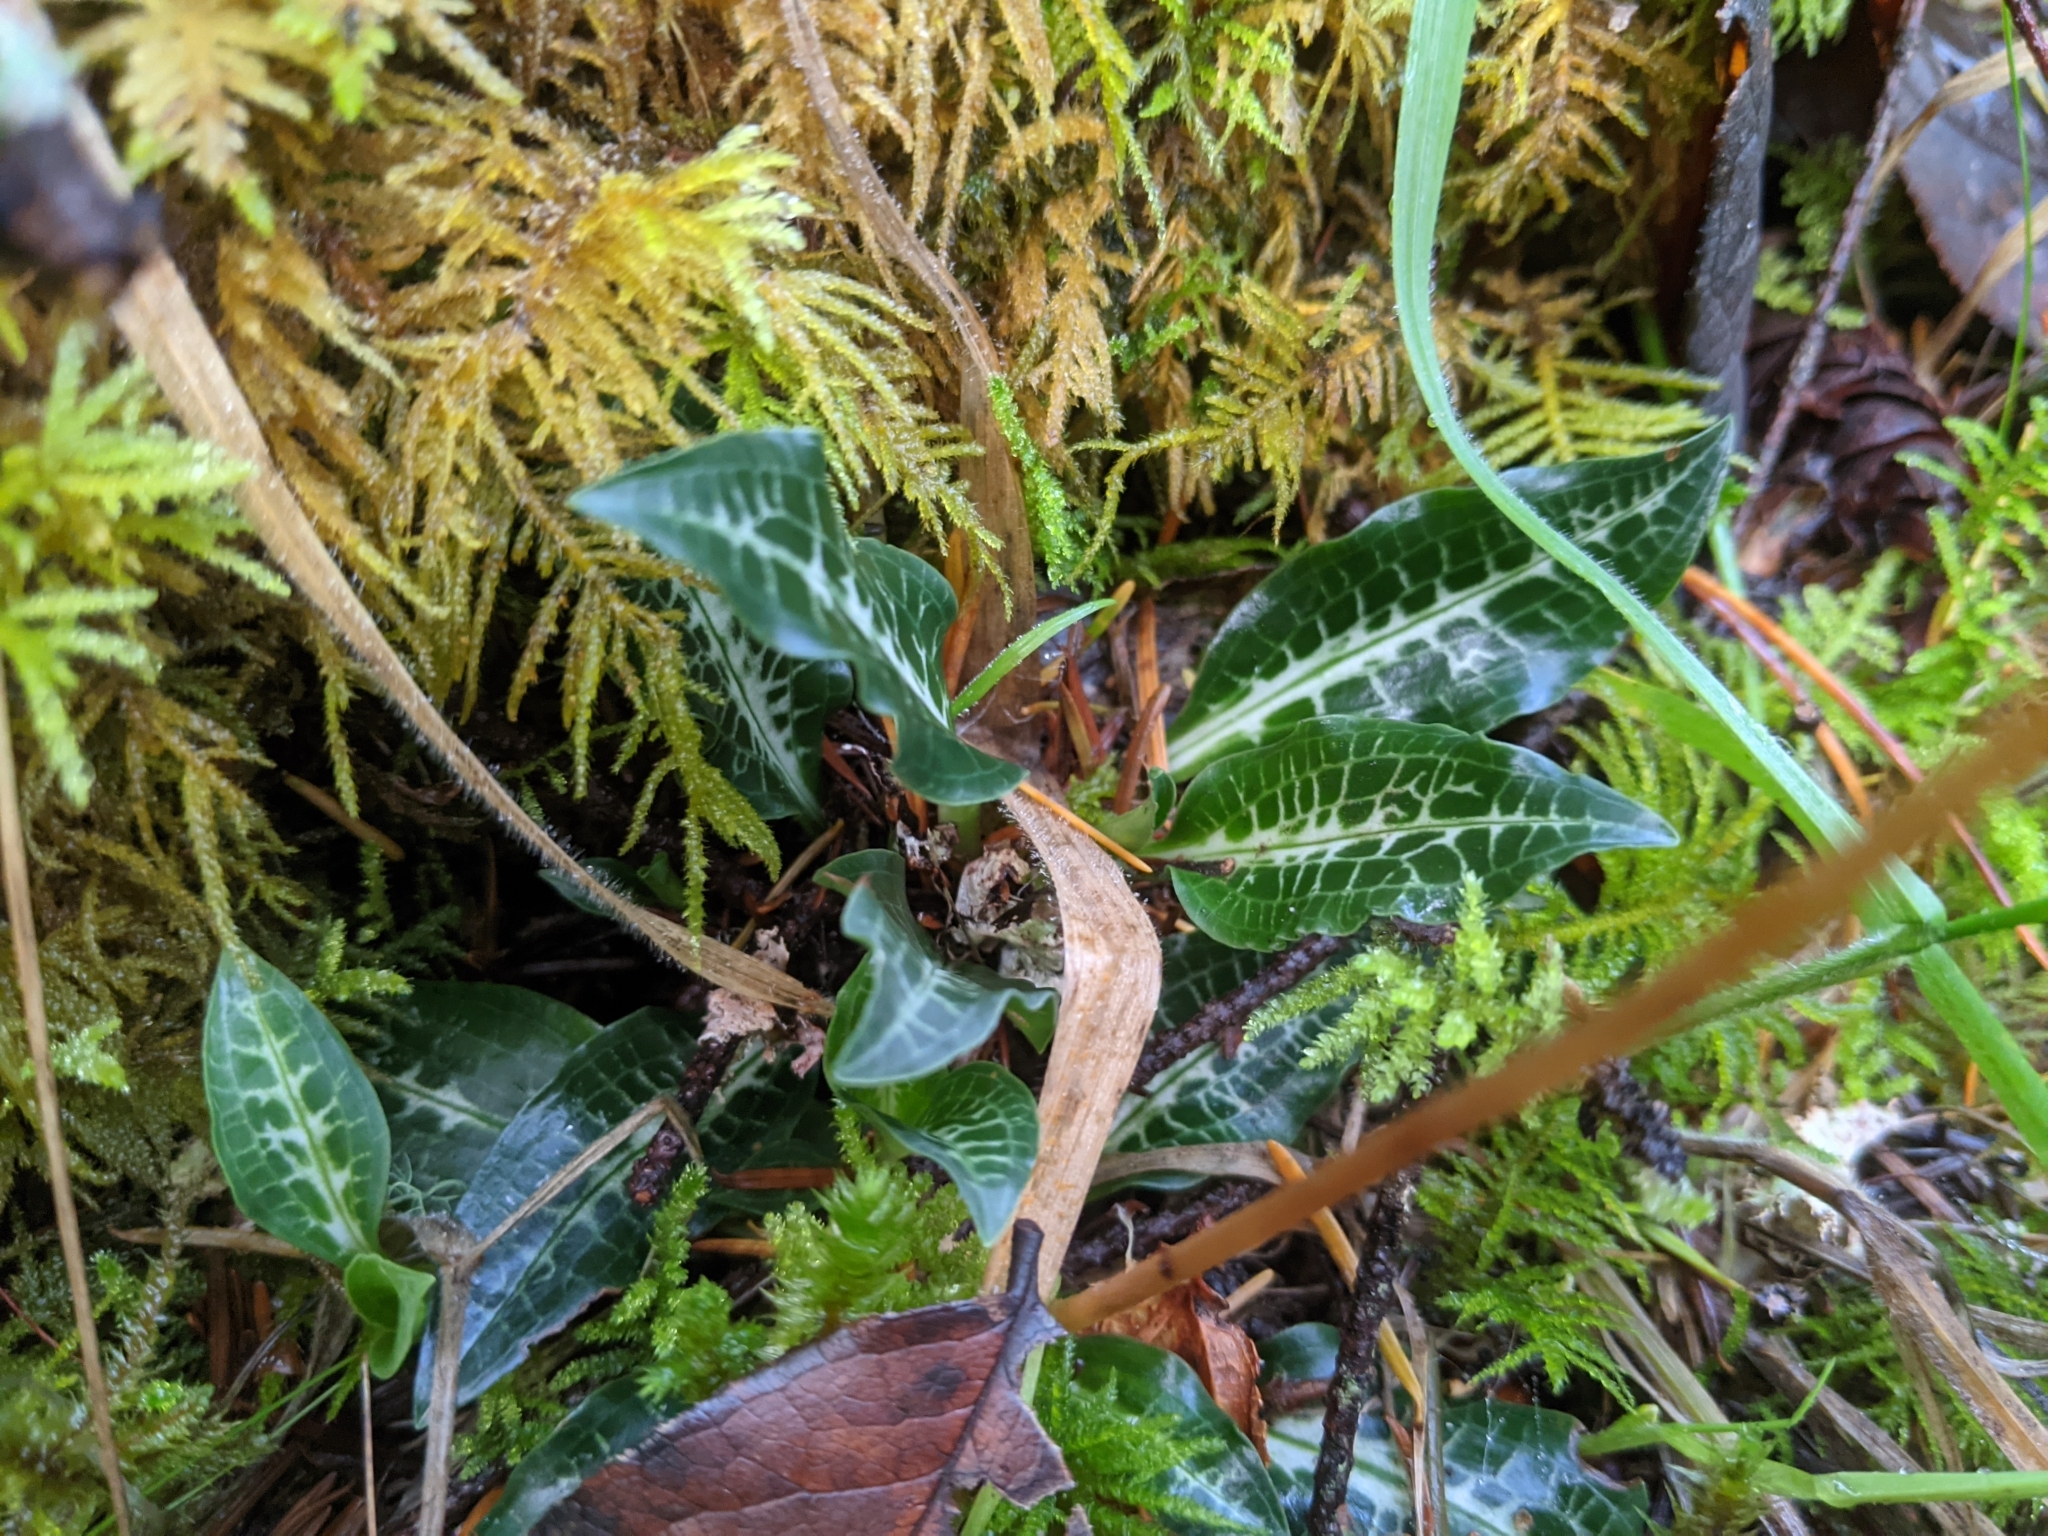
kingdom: Plantae
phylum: Tracheophyta
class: Liliopsida
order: Asparagales
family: Orchidaceae
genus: Goodyera
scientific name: Goodyera oblongifolia
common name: Giant rattlesnake-plantain
